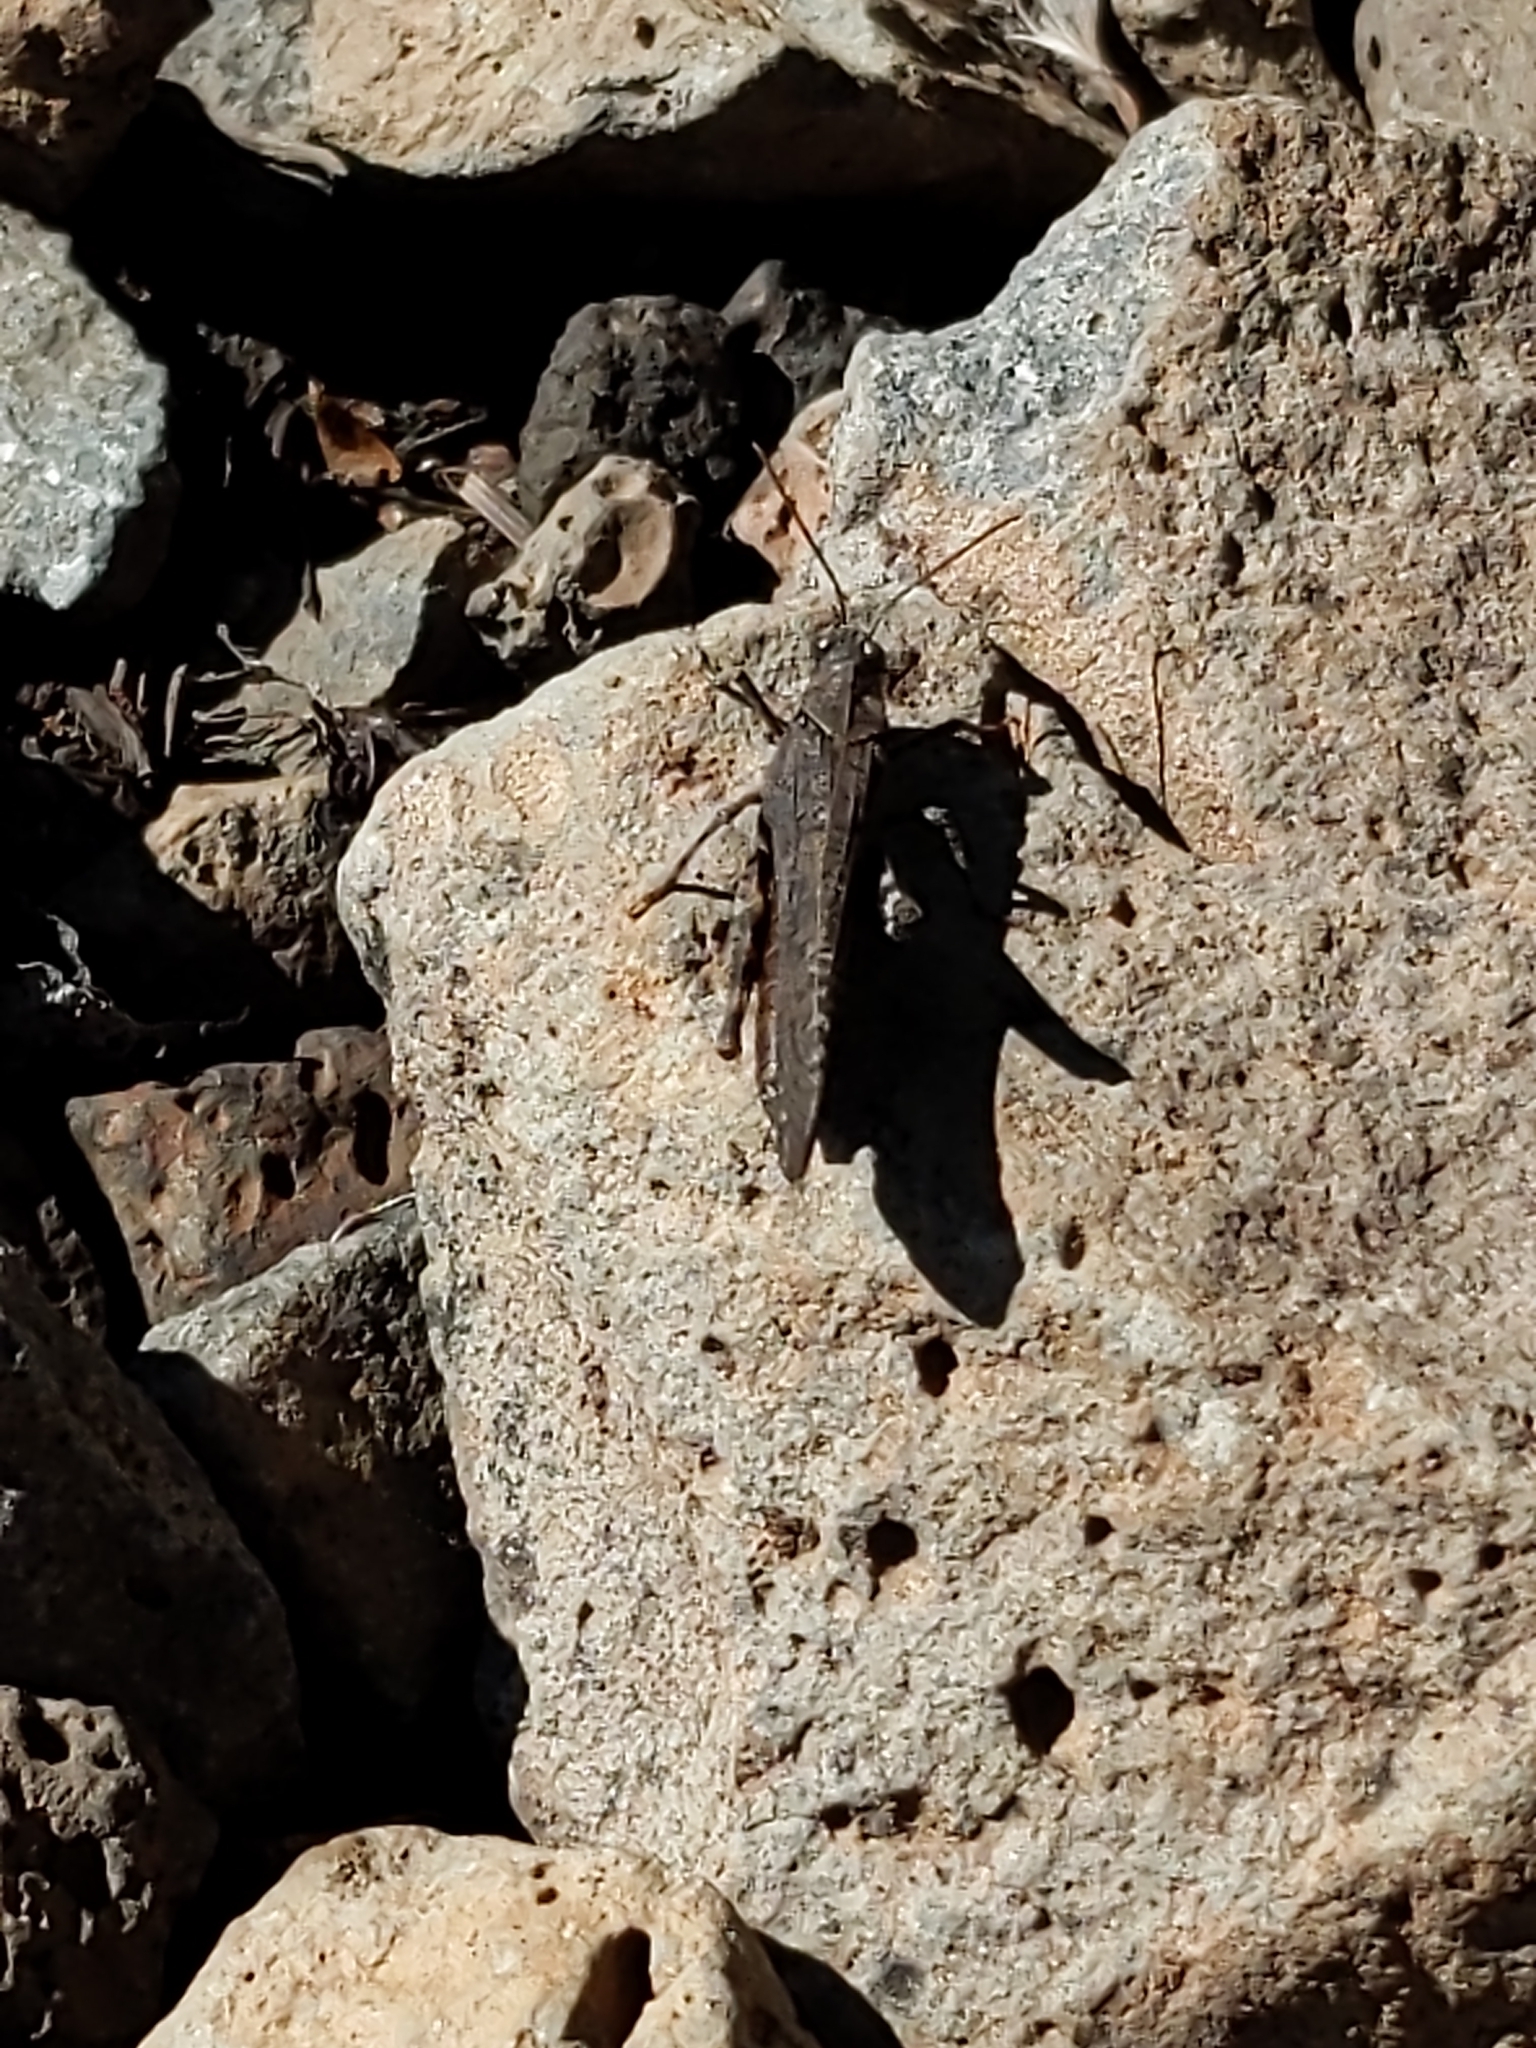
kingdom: Animalia
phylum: Arthropoda
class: Insecta
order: Orthoptera
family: Acrididae
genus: Trimerotropis
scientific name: Trimerotropis verruculata
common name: Crackling forest grasshopper
